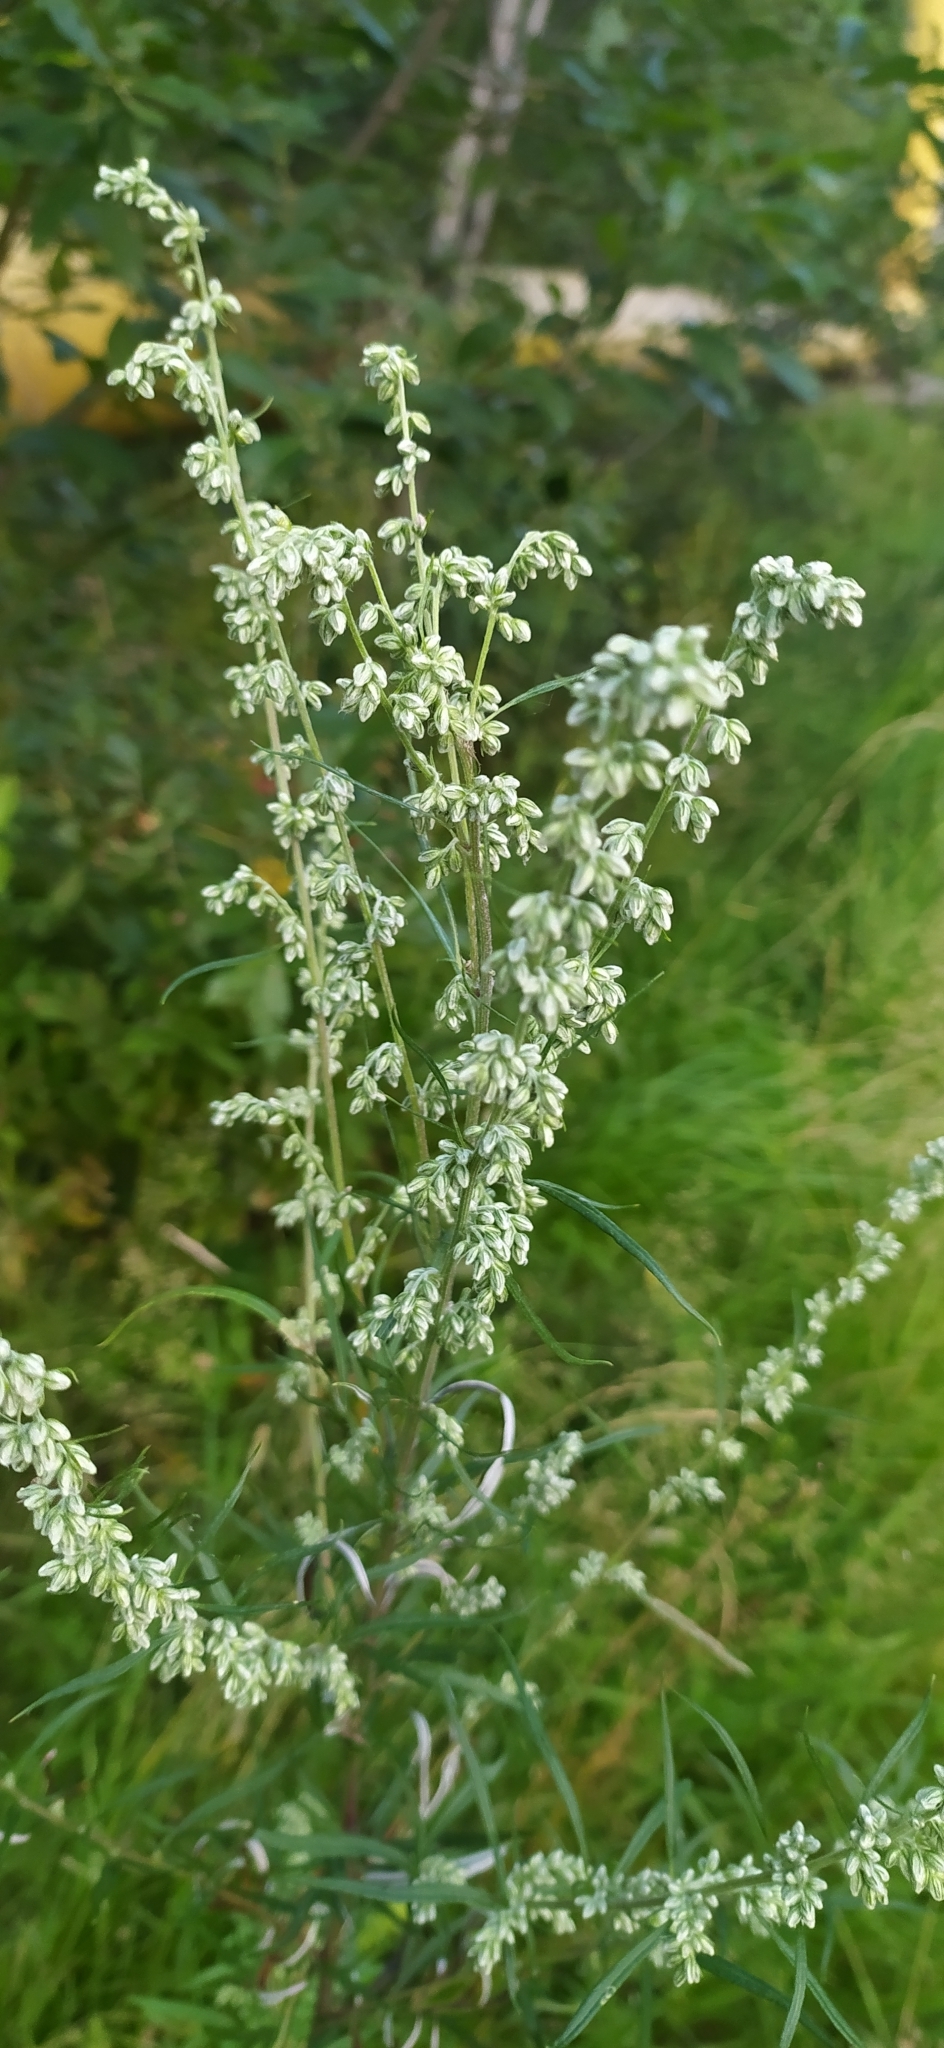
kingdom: Plantae
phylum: Tracheophyta
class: Magnoliopsida
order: Asterales
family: Asteraceae
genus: Artemisia
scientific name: Artemisia vulgaris
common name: Mugwort
